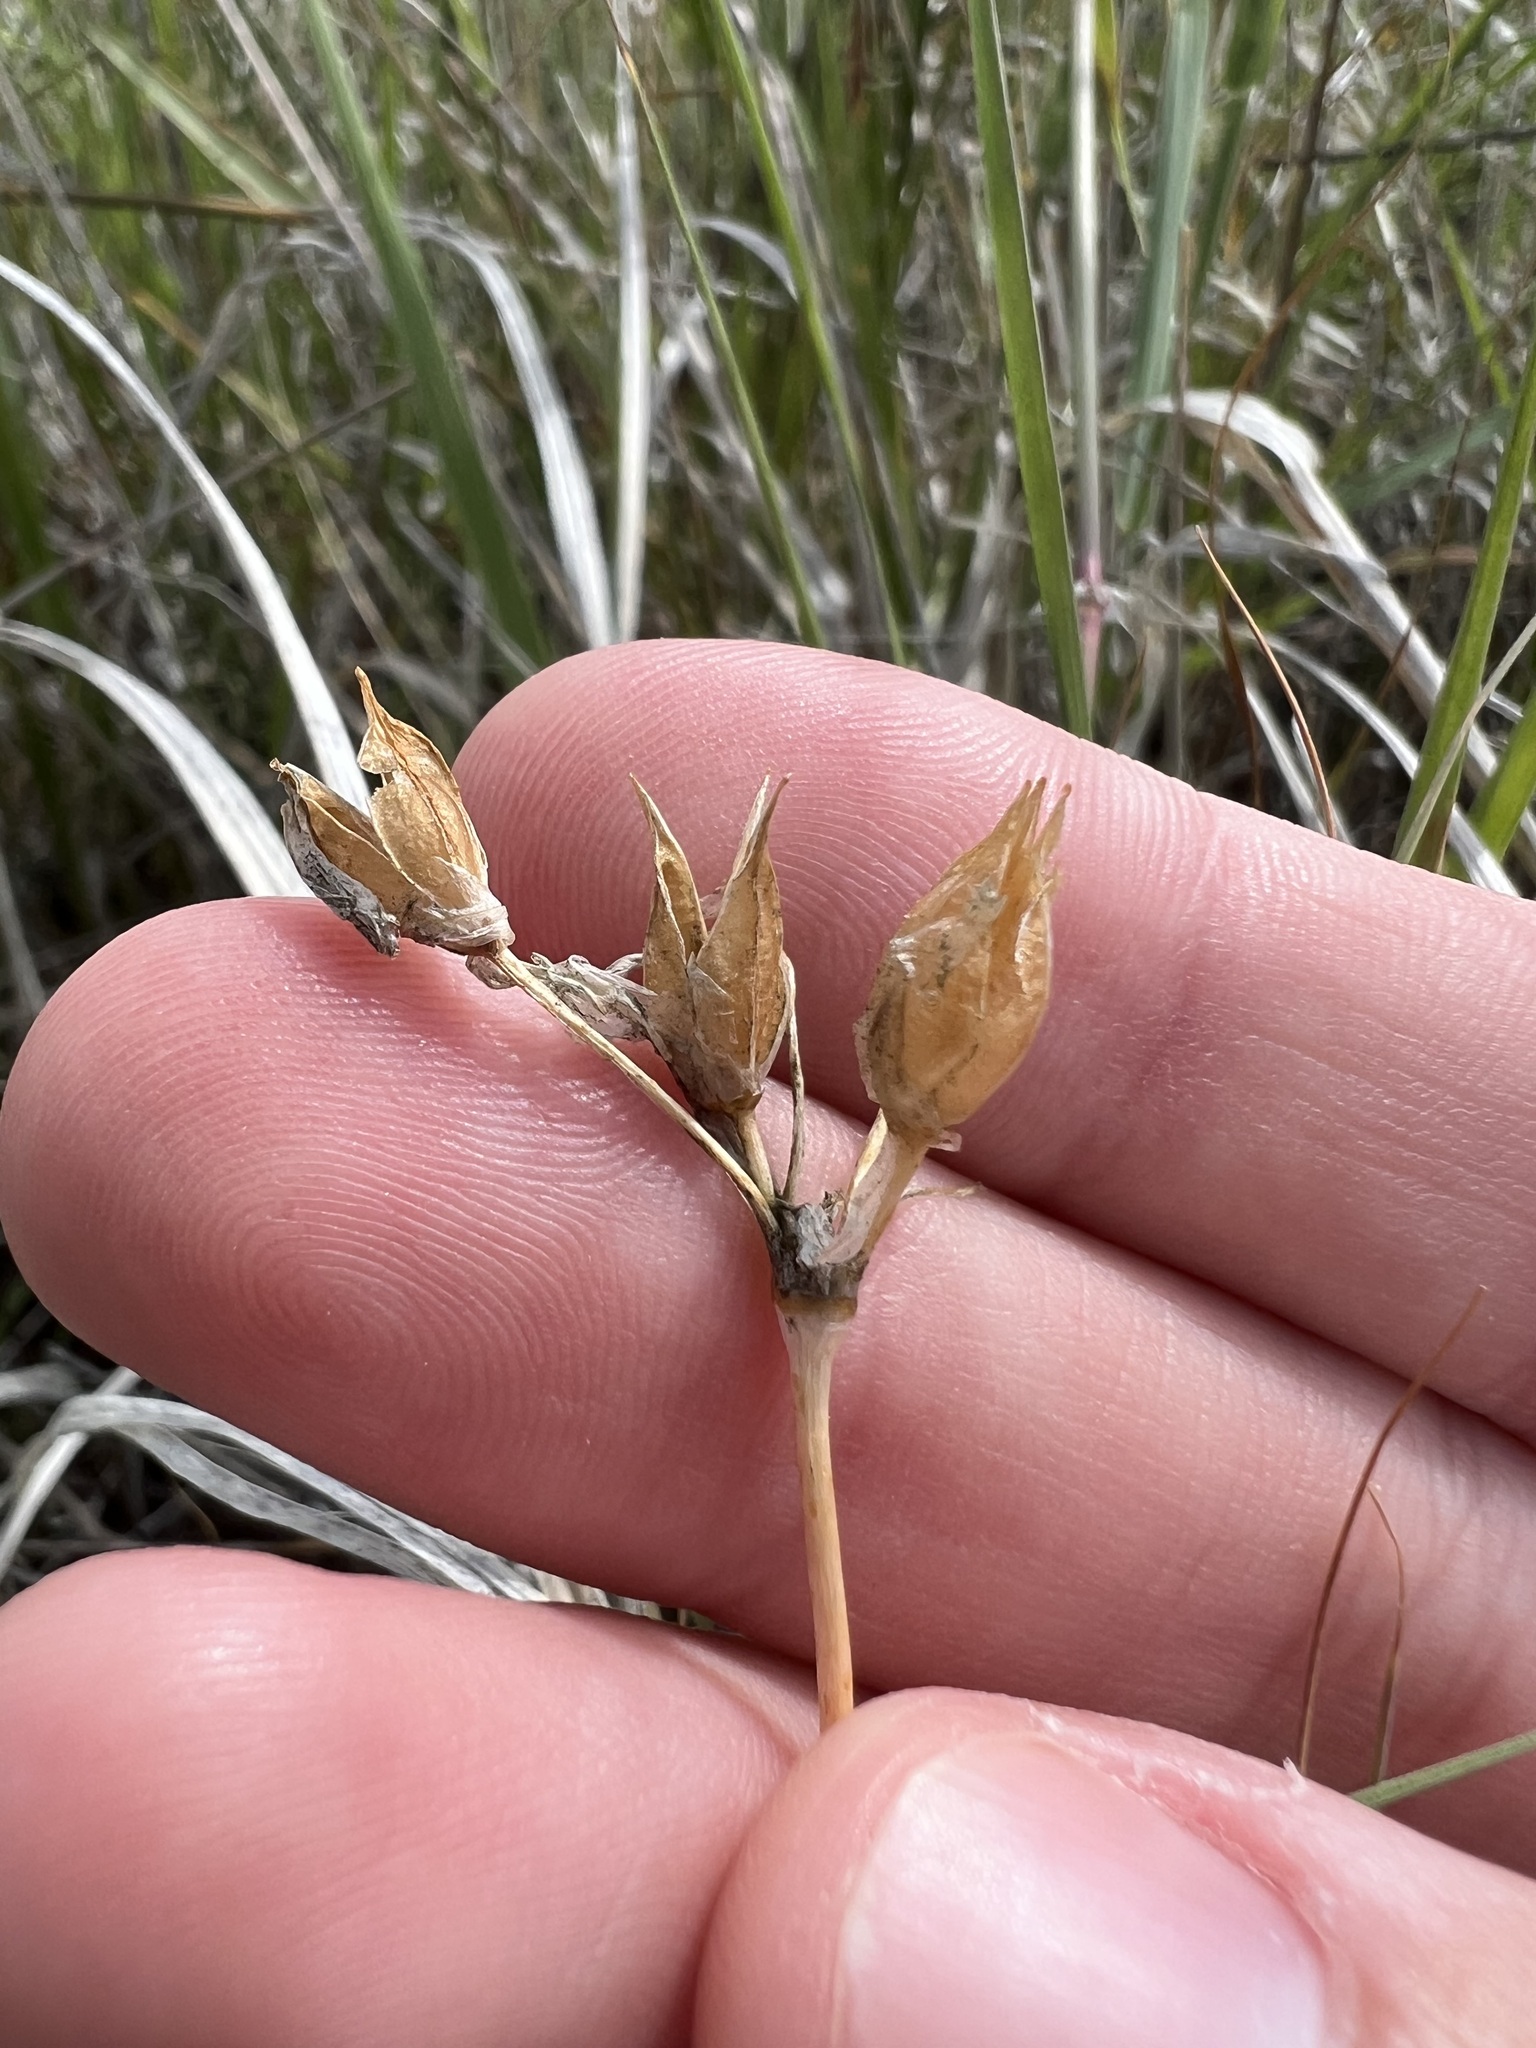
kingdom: Plantae
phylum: Tracheophyta
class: Liliopsida
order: Asparagales
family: Asparagaceae
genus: Dipterostemon
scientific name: Dipterostemon capitatus
